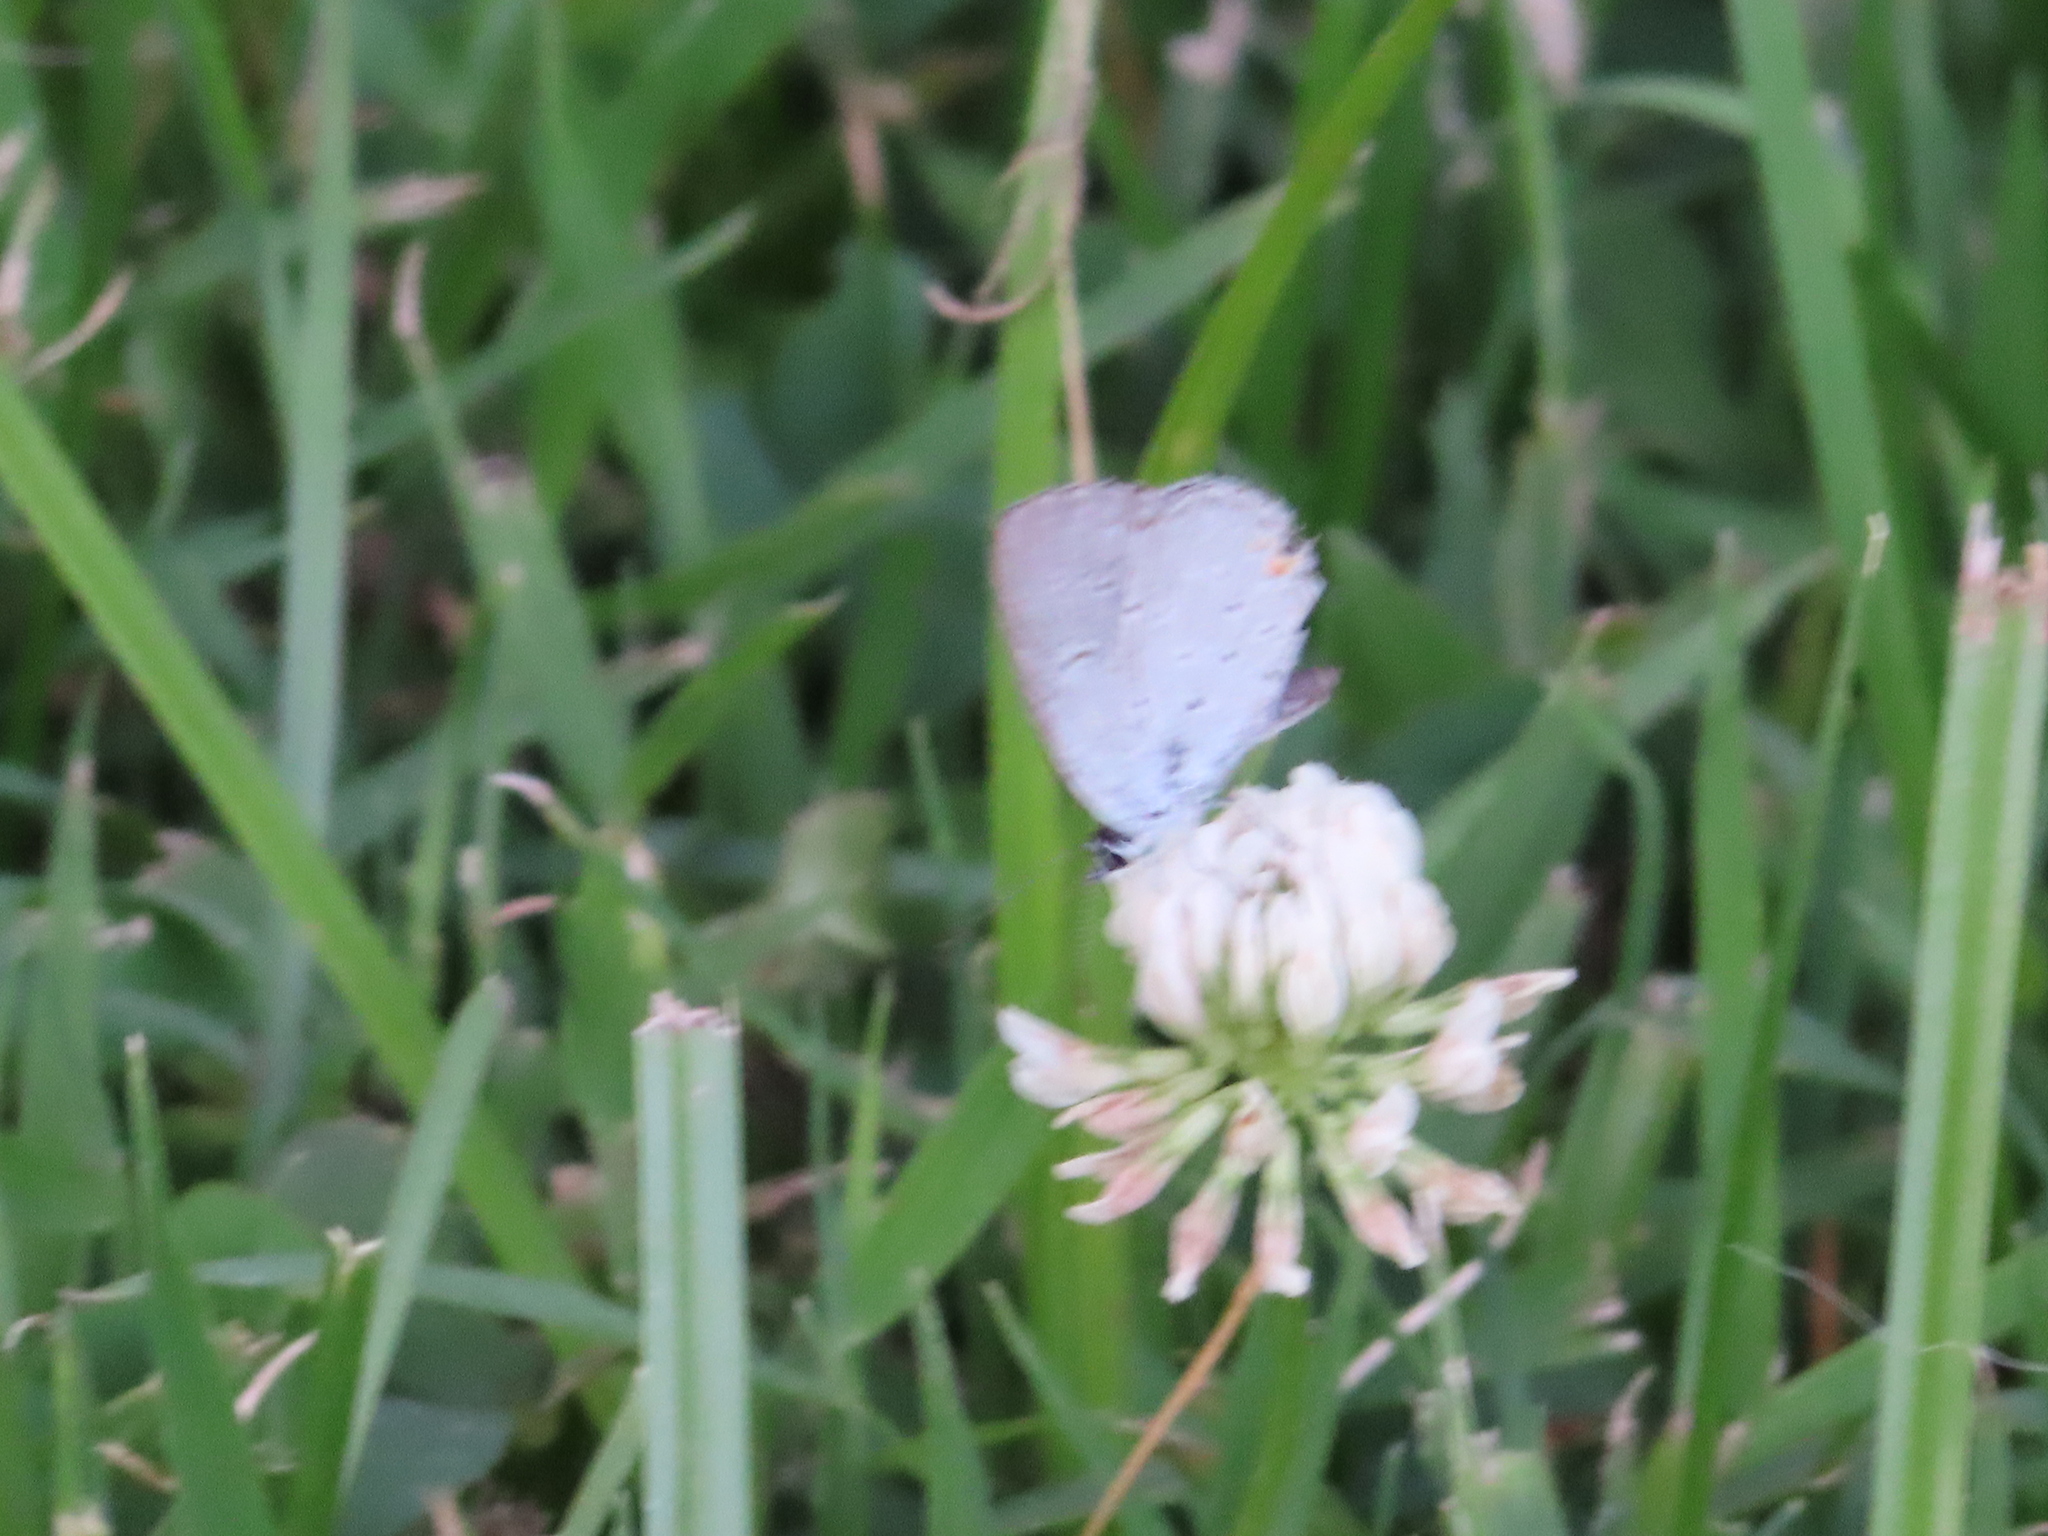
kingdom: Animalia
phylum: Arthropoda
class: Insecta
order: Lepidoptera
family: Lycaenidae
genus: Elkalyce
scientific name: Elkalyce comyntas
